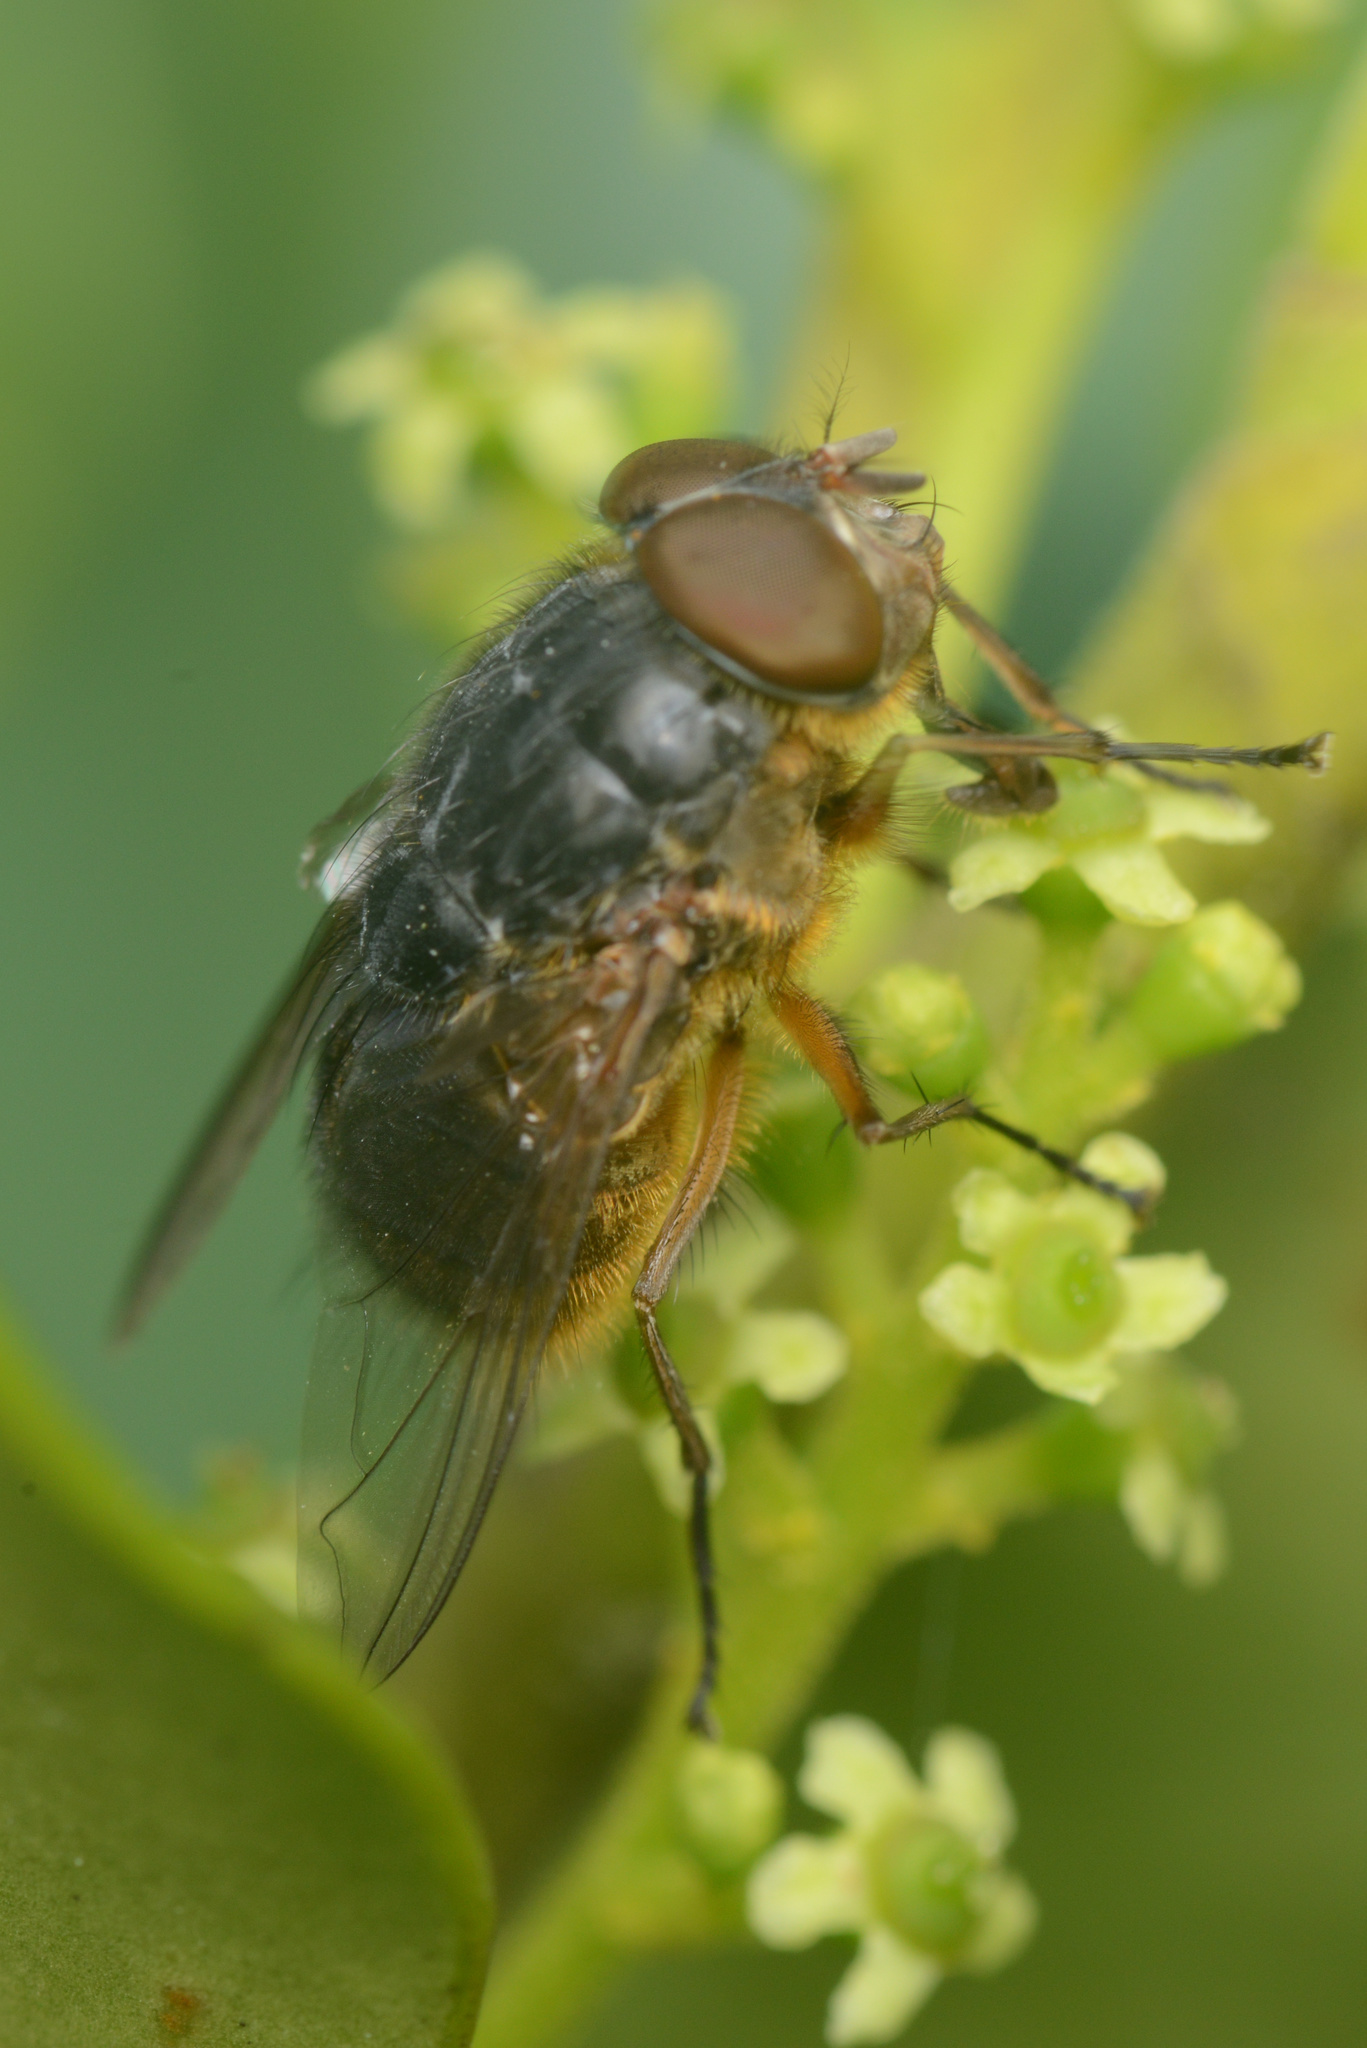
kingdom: Animalia
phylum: Arthropoda
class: Insecta
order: Diptera
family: Calliphoridae
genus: Calliphora
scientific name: Calliphora stygia
